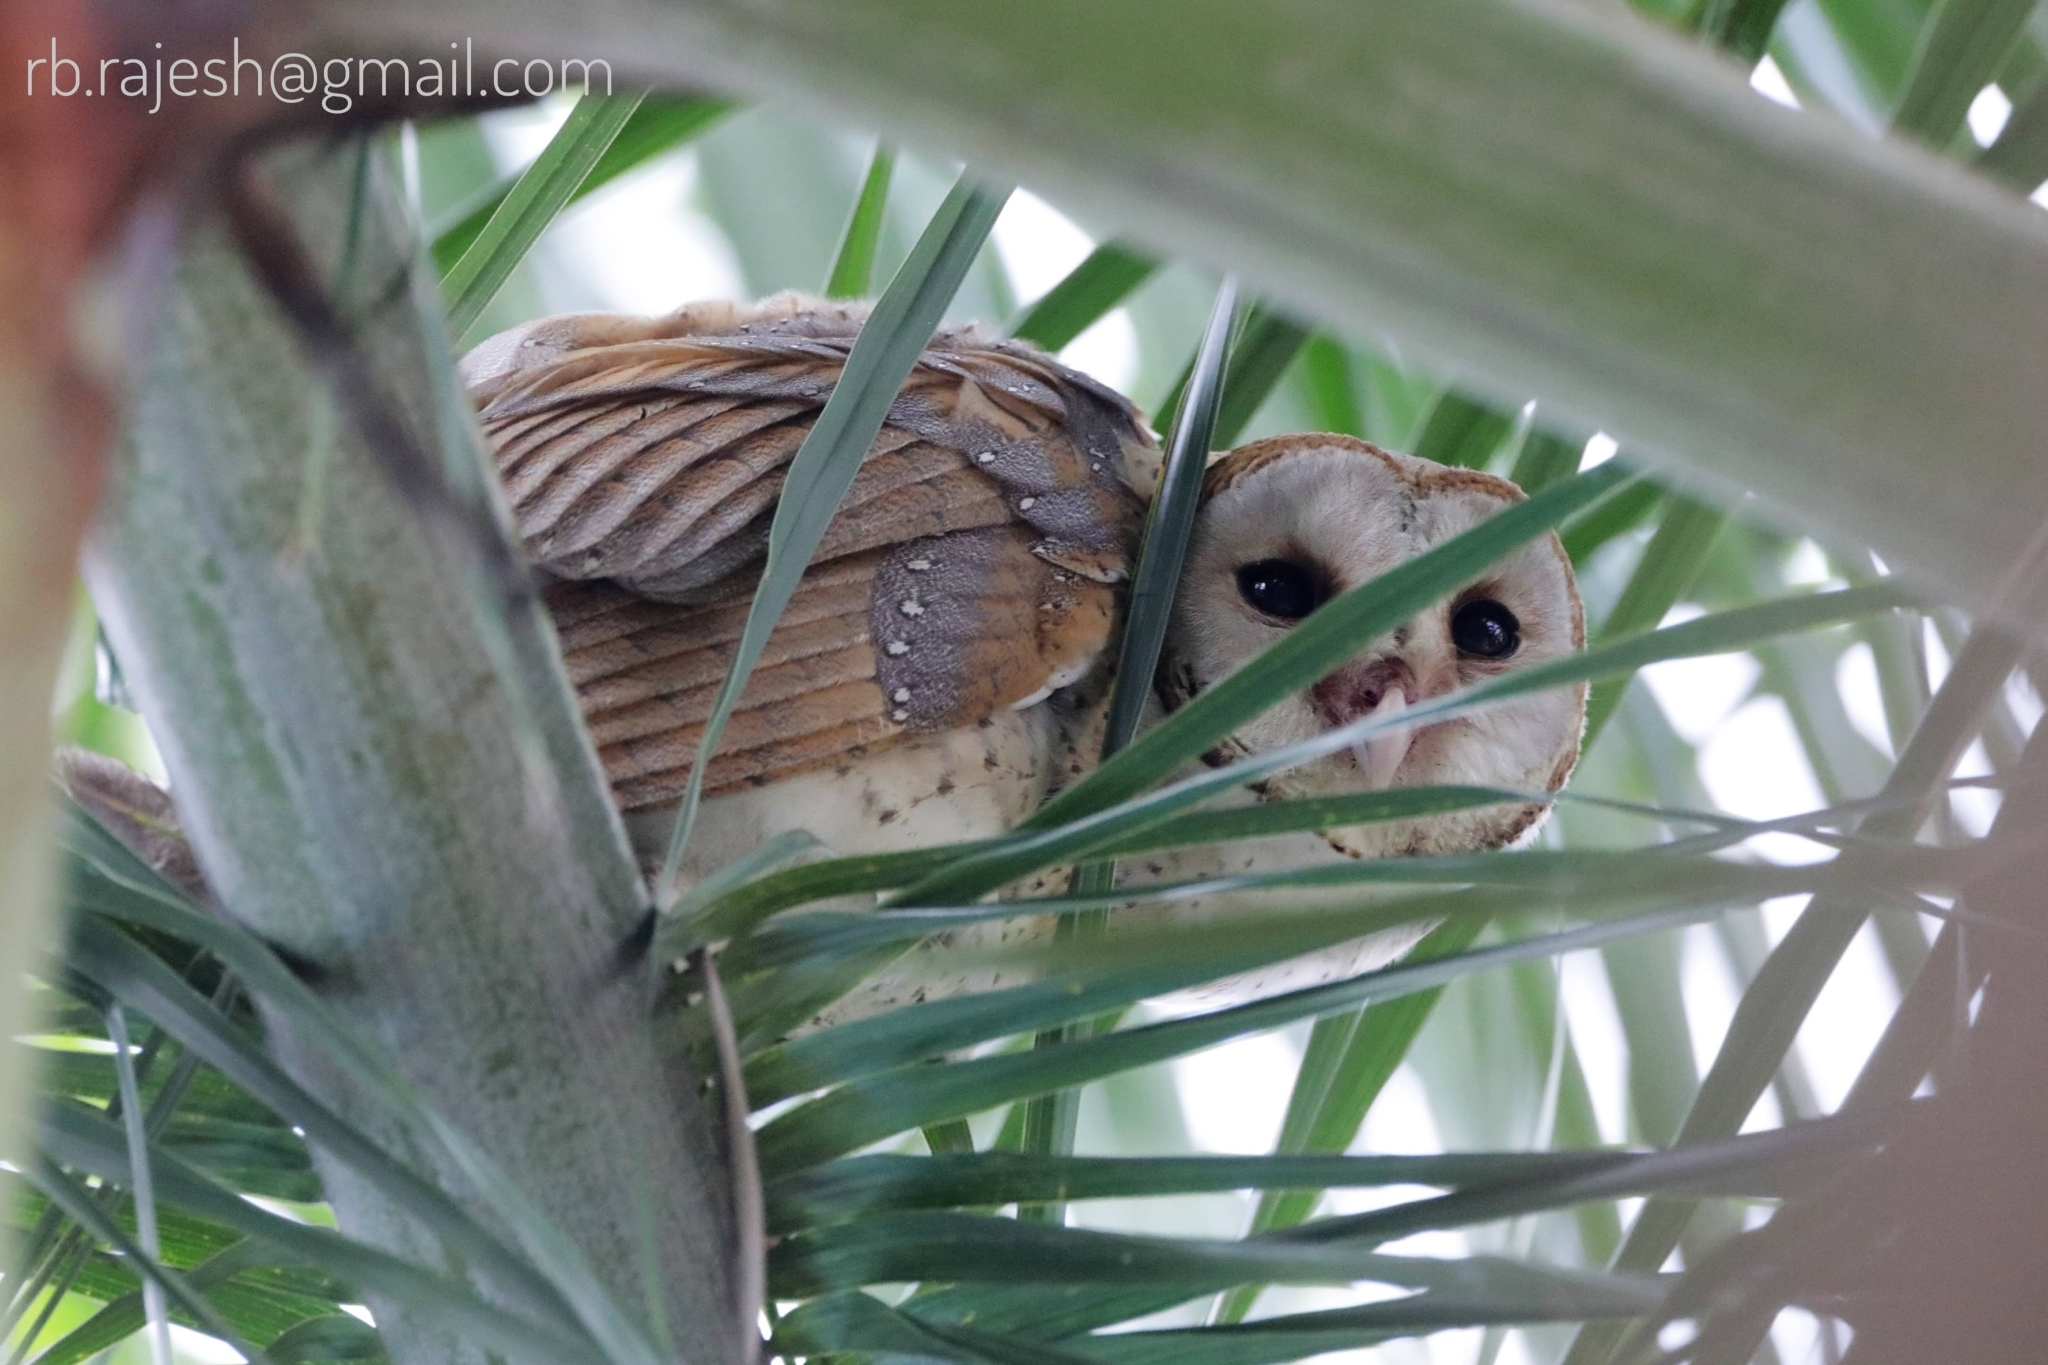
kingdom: Animalia
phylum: Chordata
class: Aves
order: Strigiformes
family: Tytonidae
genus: Tyto
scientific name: Tyto alba
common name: Barn owl
